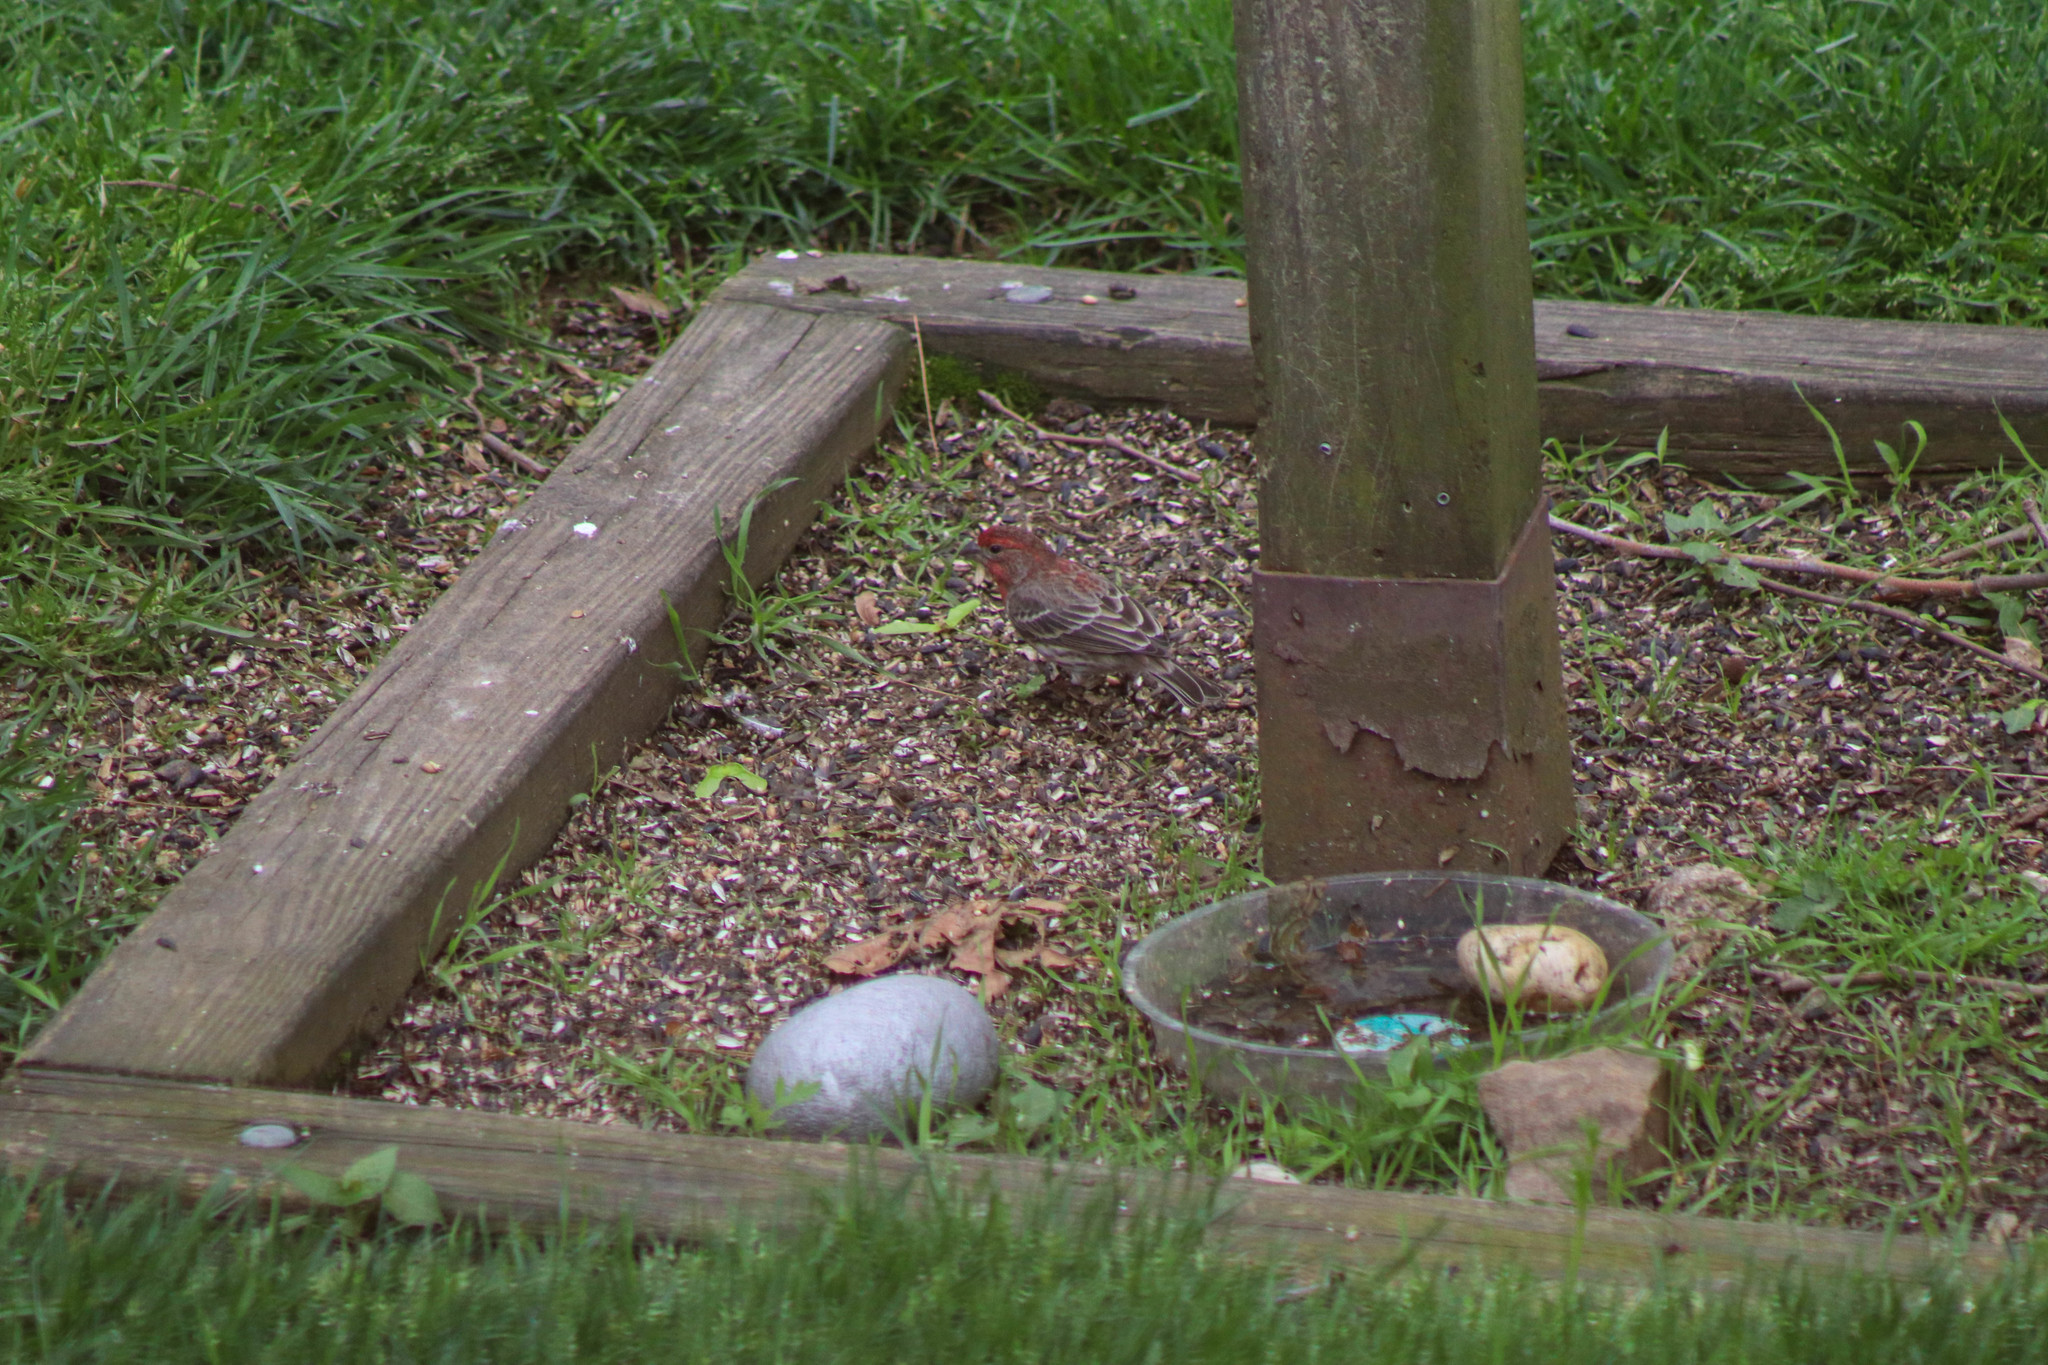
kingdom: Animalia
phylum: Chordata
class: Aves
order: Passeriformes
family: Fringillidae
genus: Haemorhous
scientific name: Haemorhous mexicanus
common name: House finch
